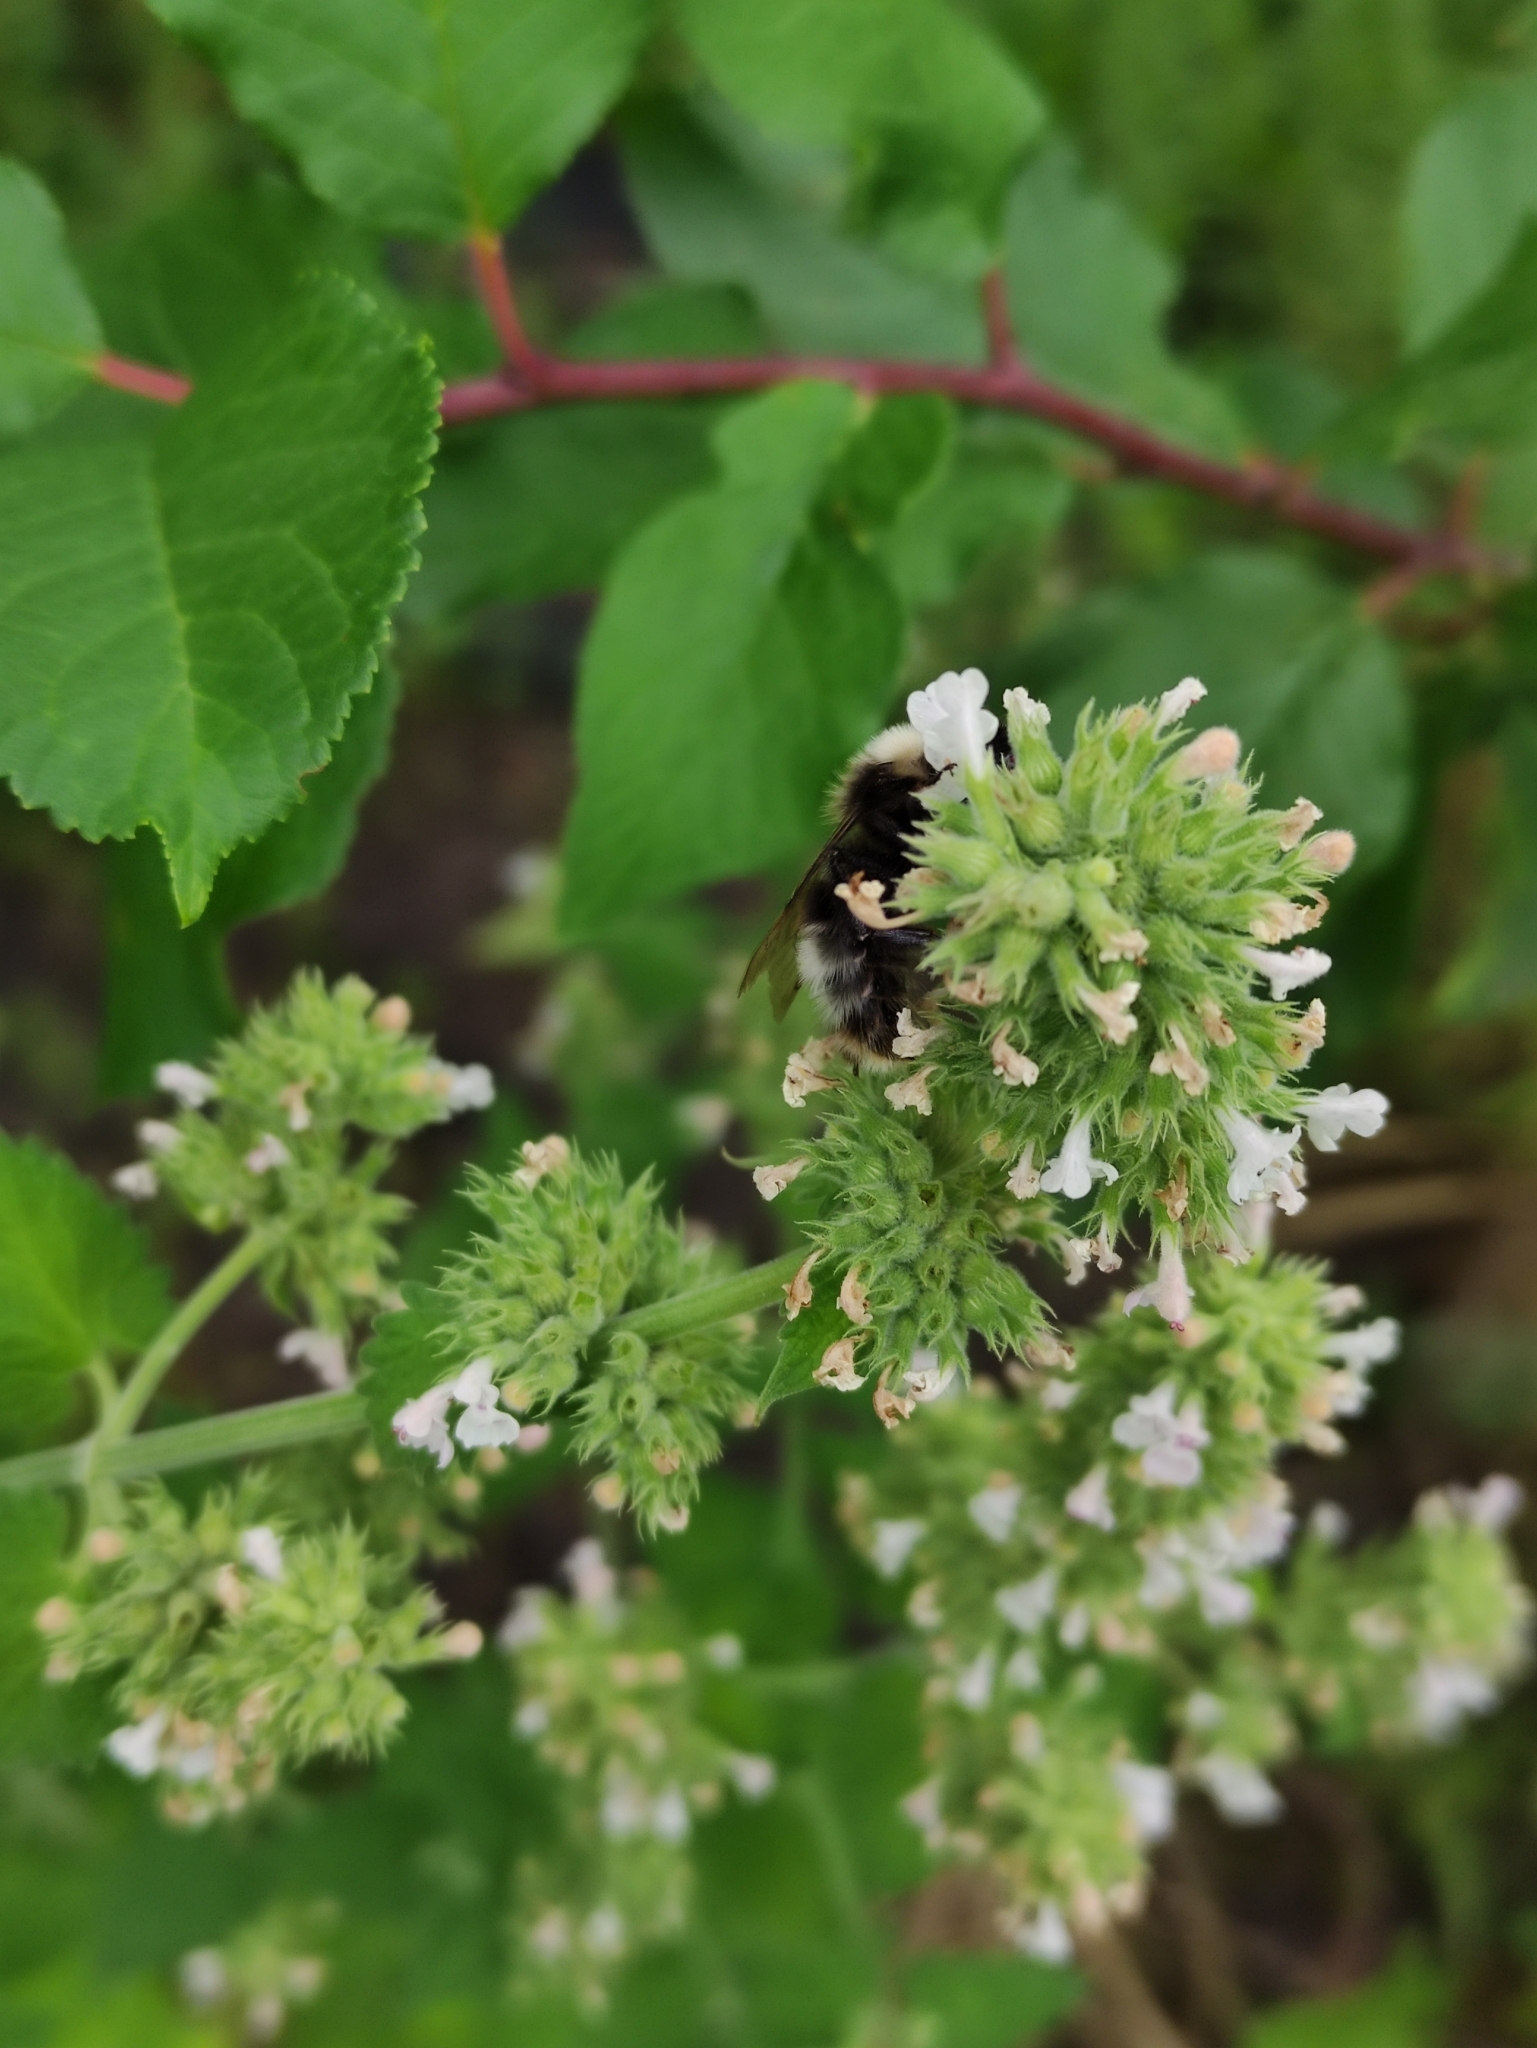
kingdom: Animalia
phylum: Arthropoda
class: Insecta
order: Hymenoptera
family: Apidae
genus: Bombus
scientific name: Bombus
